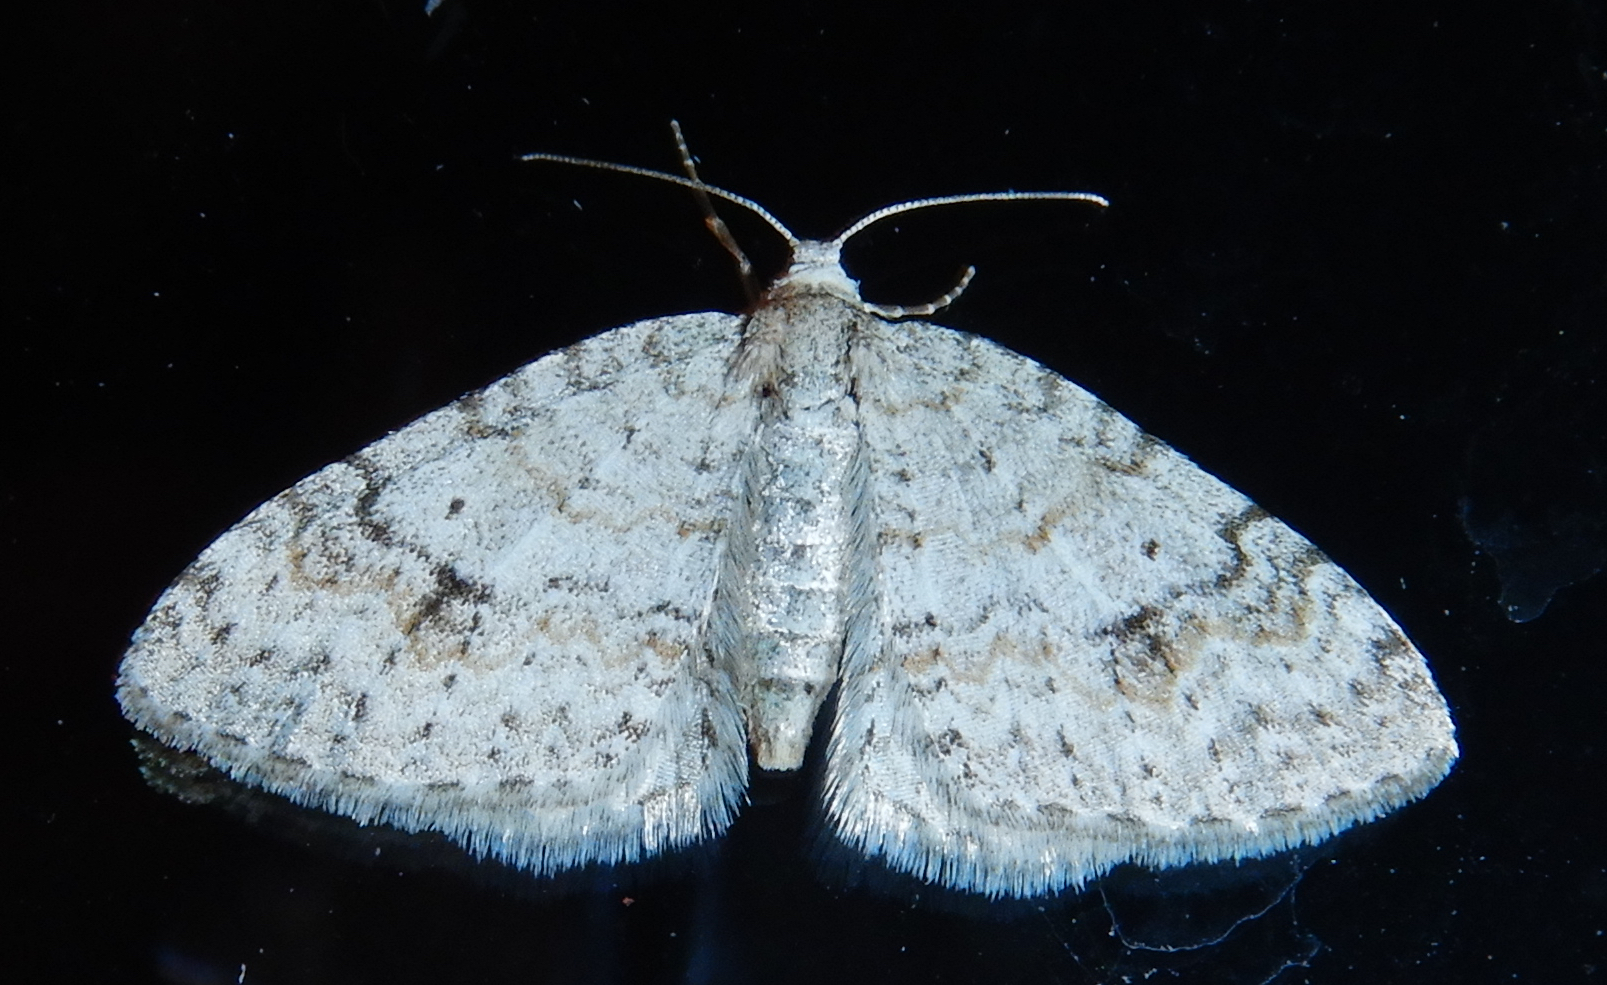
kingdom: Animalia
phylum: Arthropoda
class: Insecta
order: Lepidoptera
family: Geometridae
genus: Venusia
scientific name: Venusia comptaria
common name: Brown-shaded carpet
